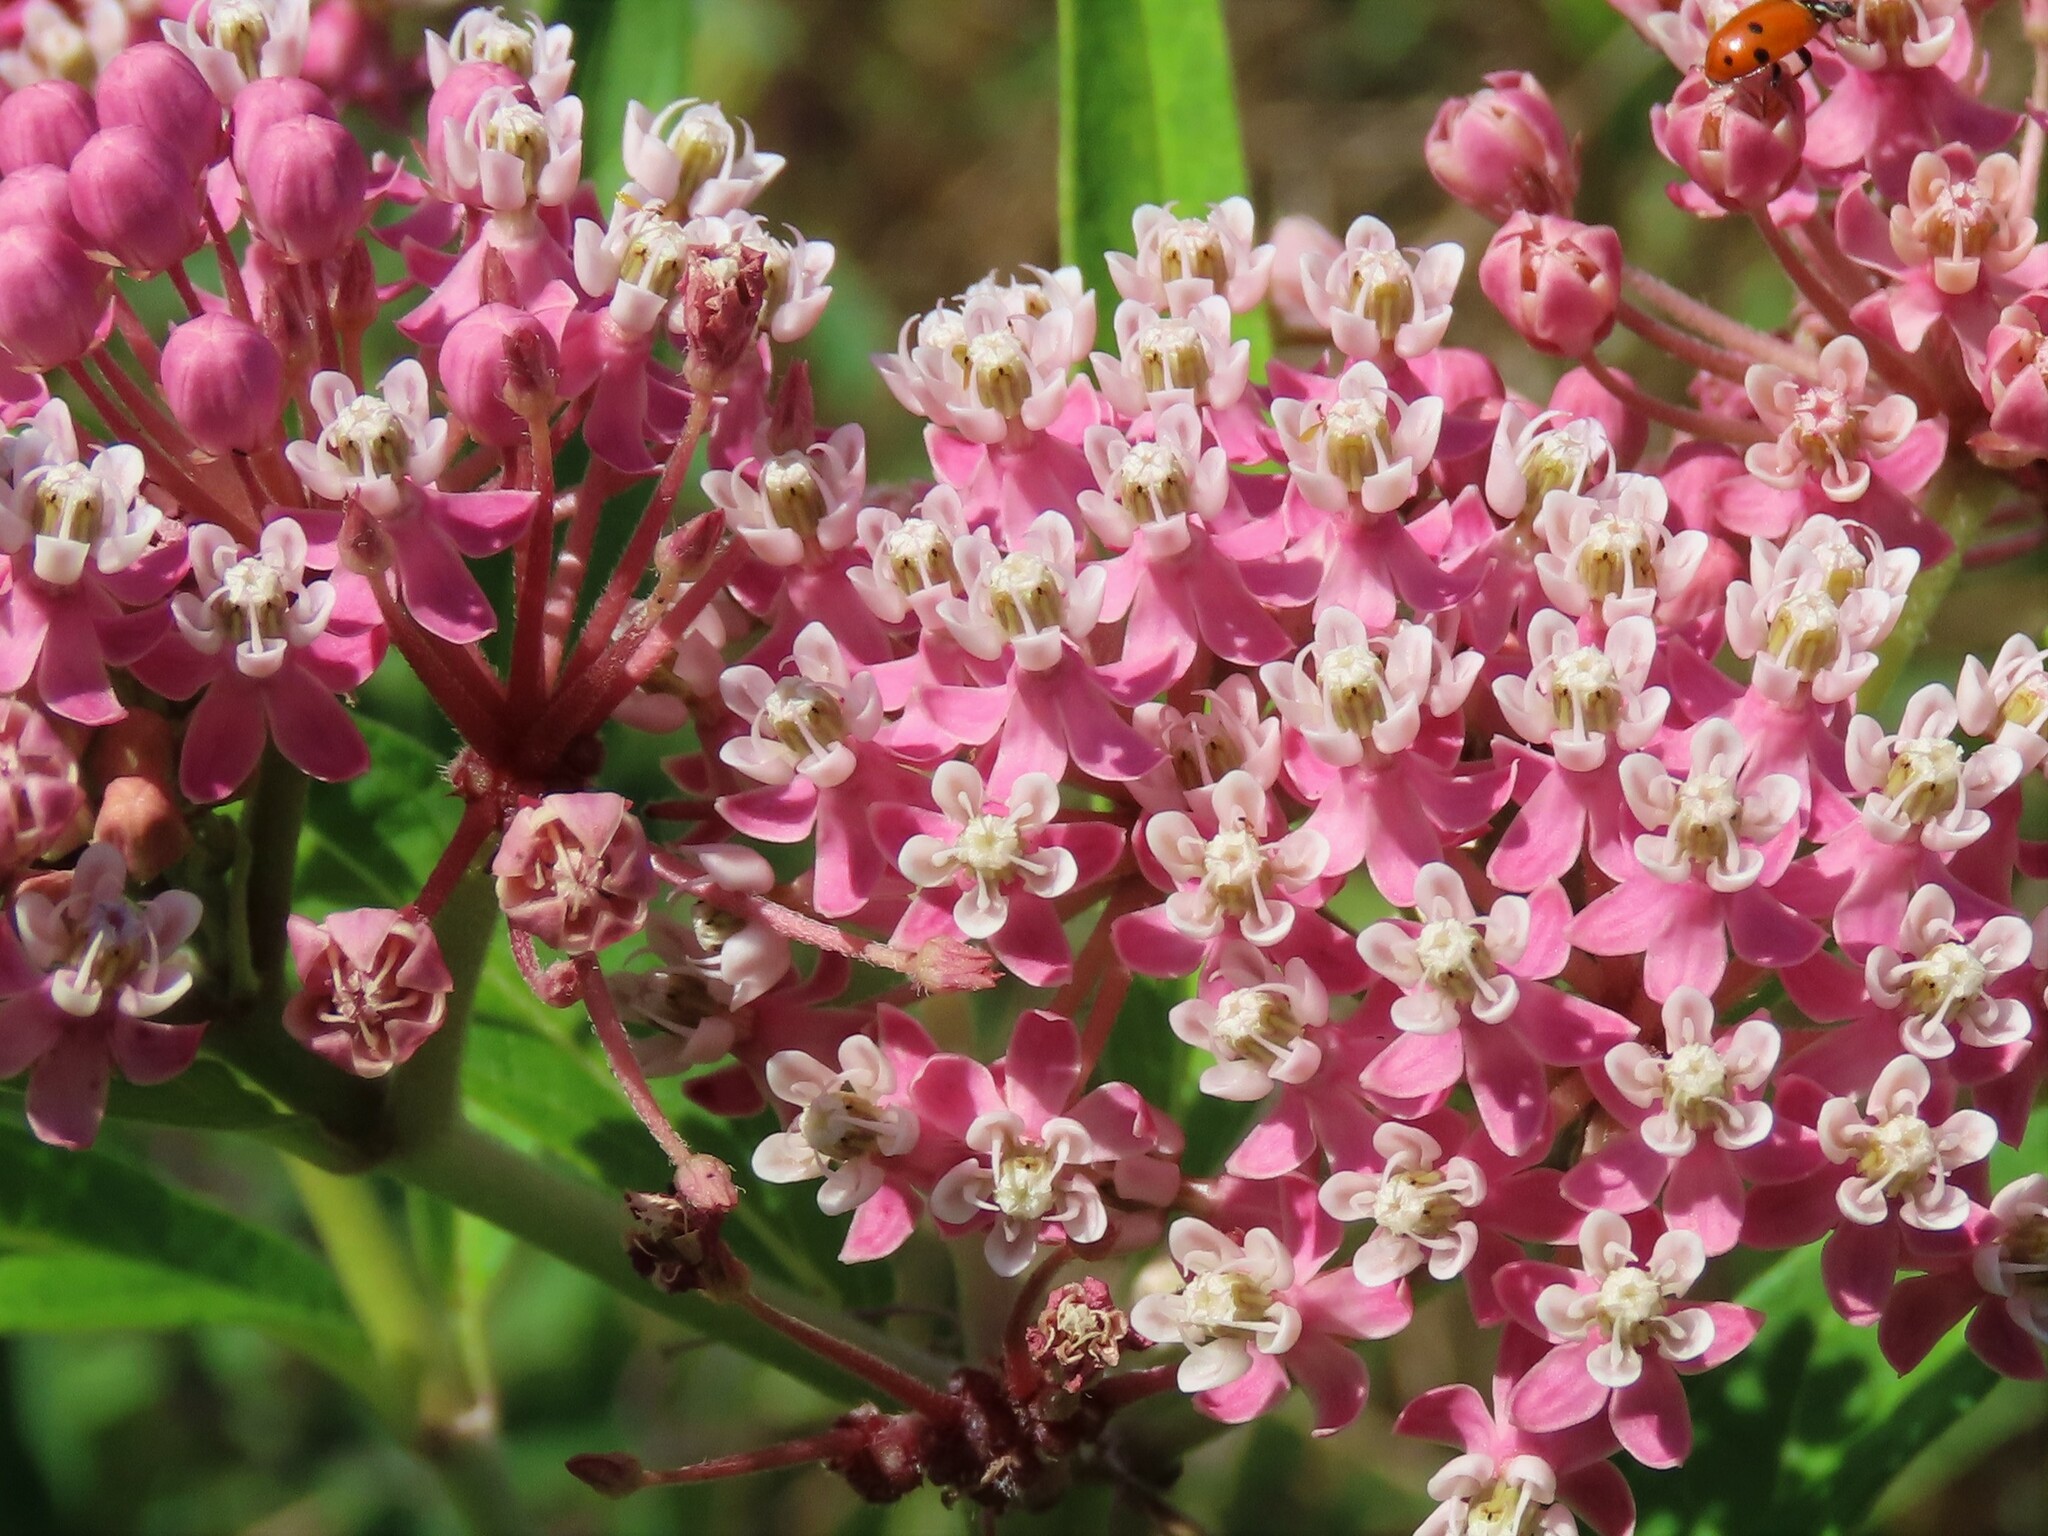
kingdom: Plantae
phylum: Tracheophyta
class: Magnoliopsida
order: Gentianales
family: Apocynaceae
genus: Asclepias
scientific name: Asclepias incarnata
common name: Swamp milkweed
